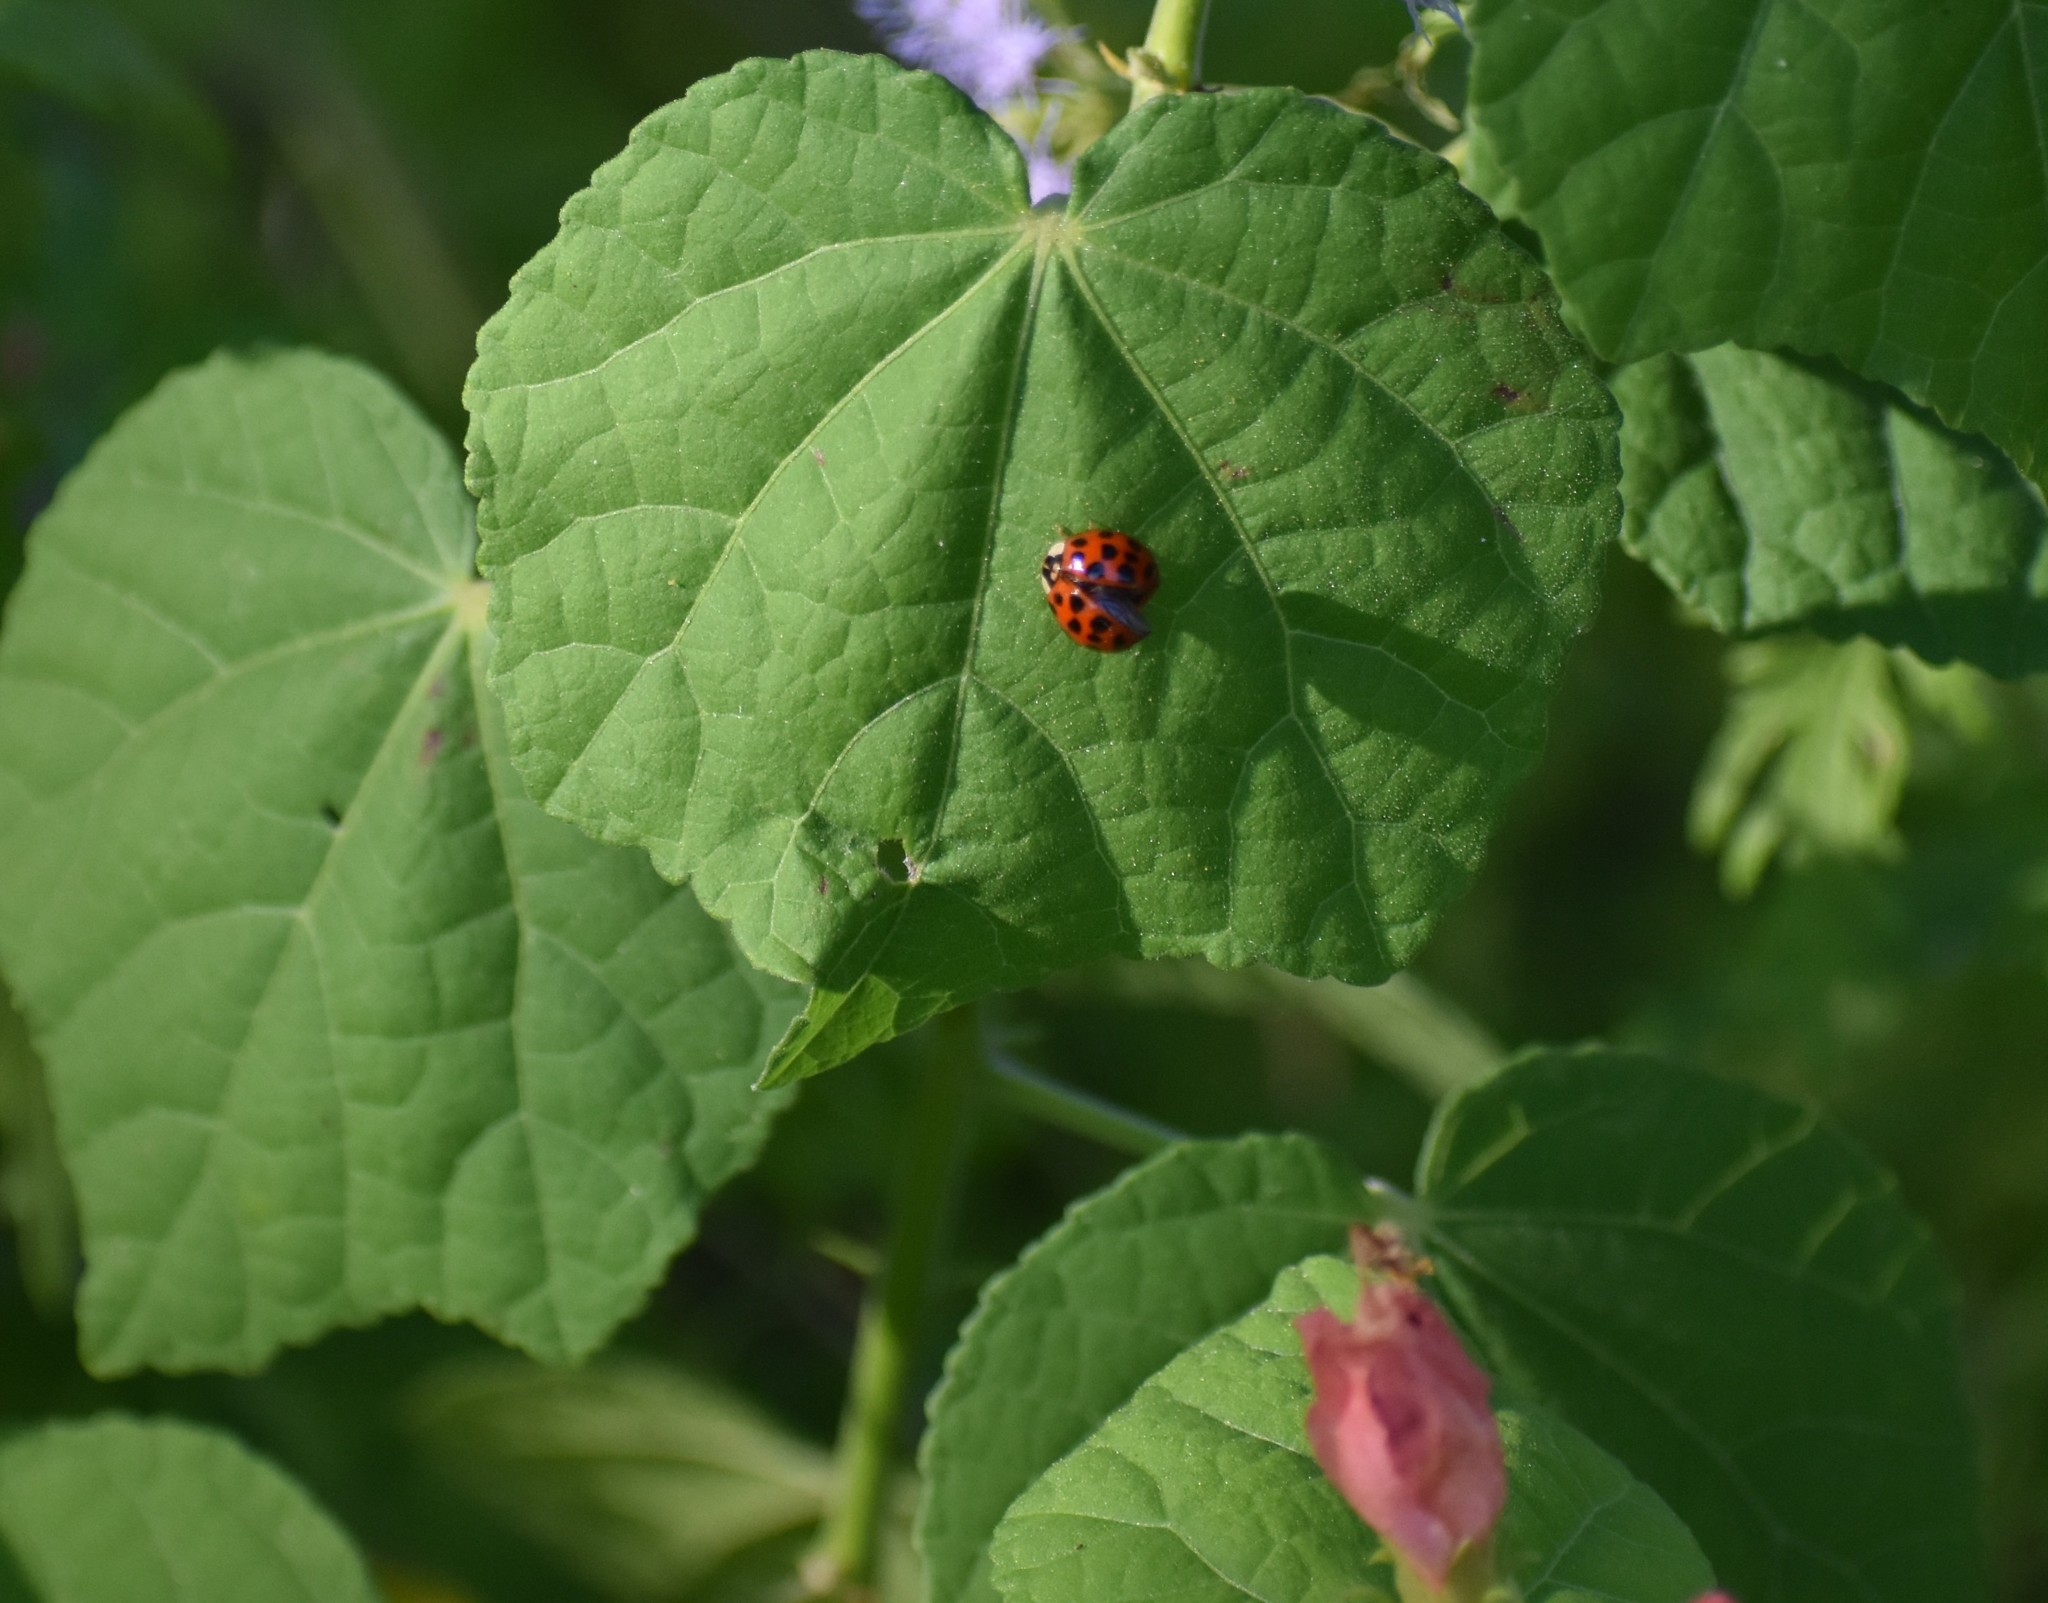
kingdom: Animalia
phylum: Arthropoda
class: Insecta
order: Coleoptera
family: Coccinellidae
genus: Harmonia
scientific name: Harmonia axyridis
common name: Harlequin ladybird
